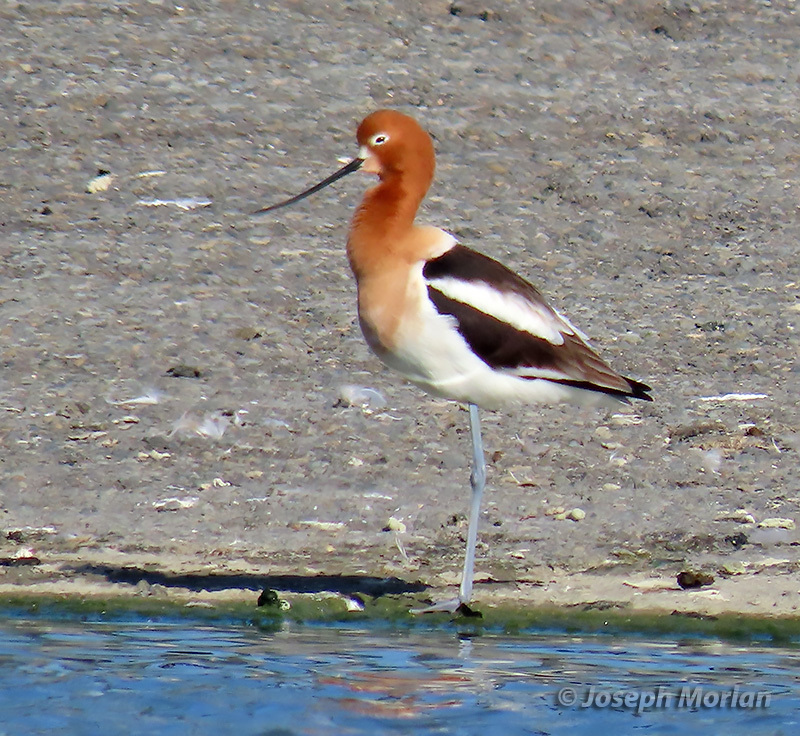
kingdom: Animalia
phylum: Chordata
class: Aves
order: Charadriiformes
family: Recurvirostridae
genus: Recurvirostra
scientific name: Recurvirostra americana
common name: American avocet
